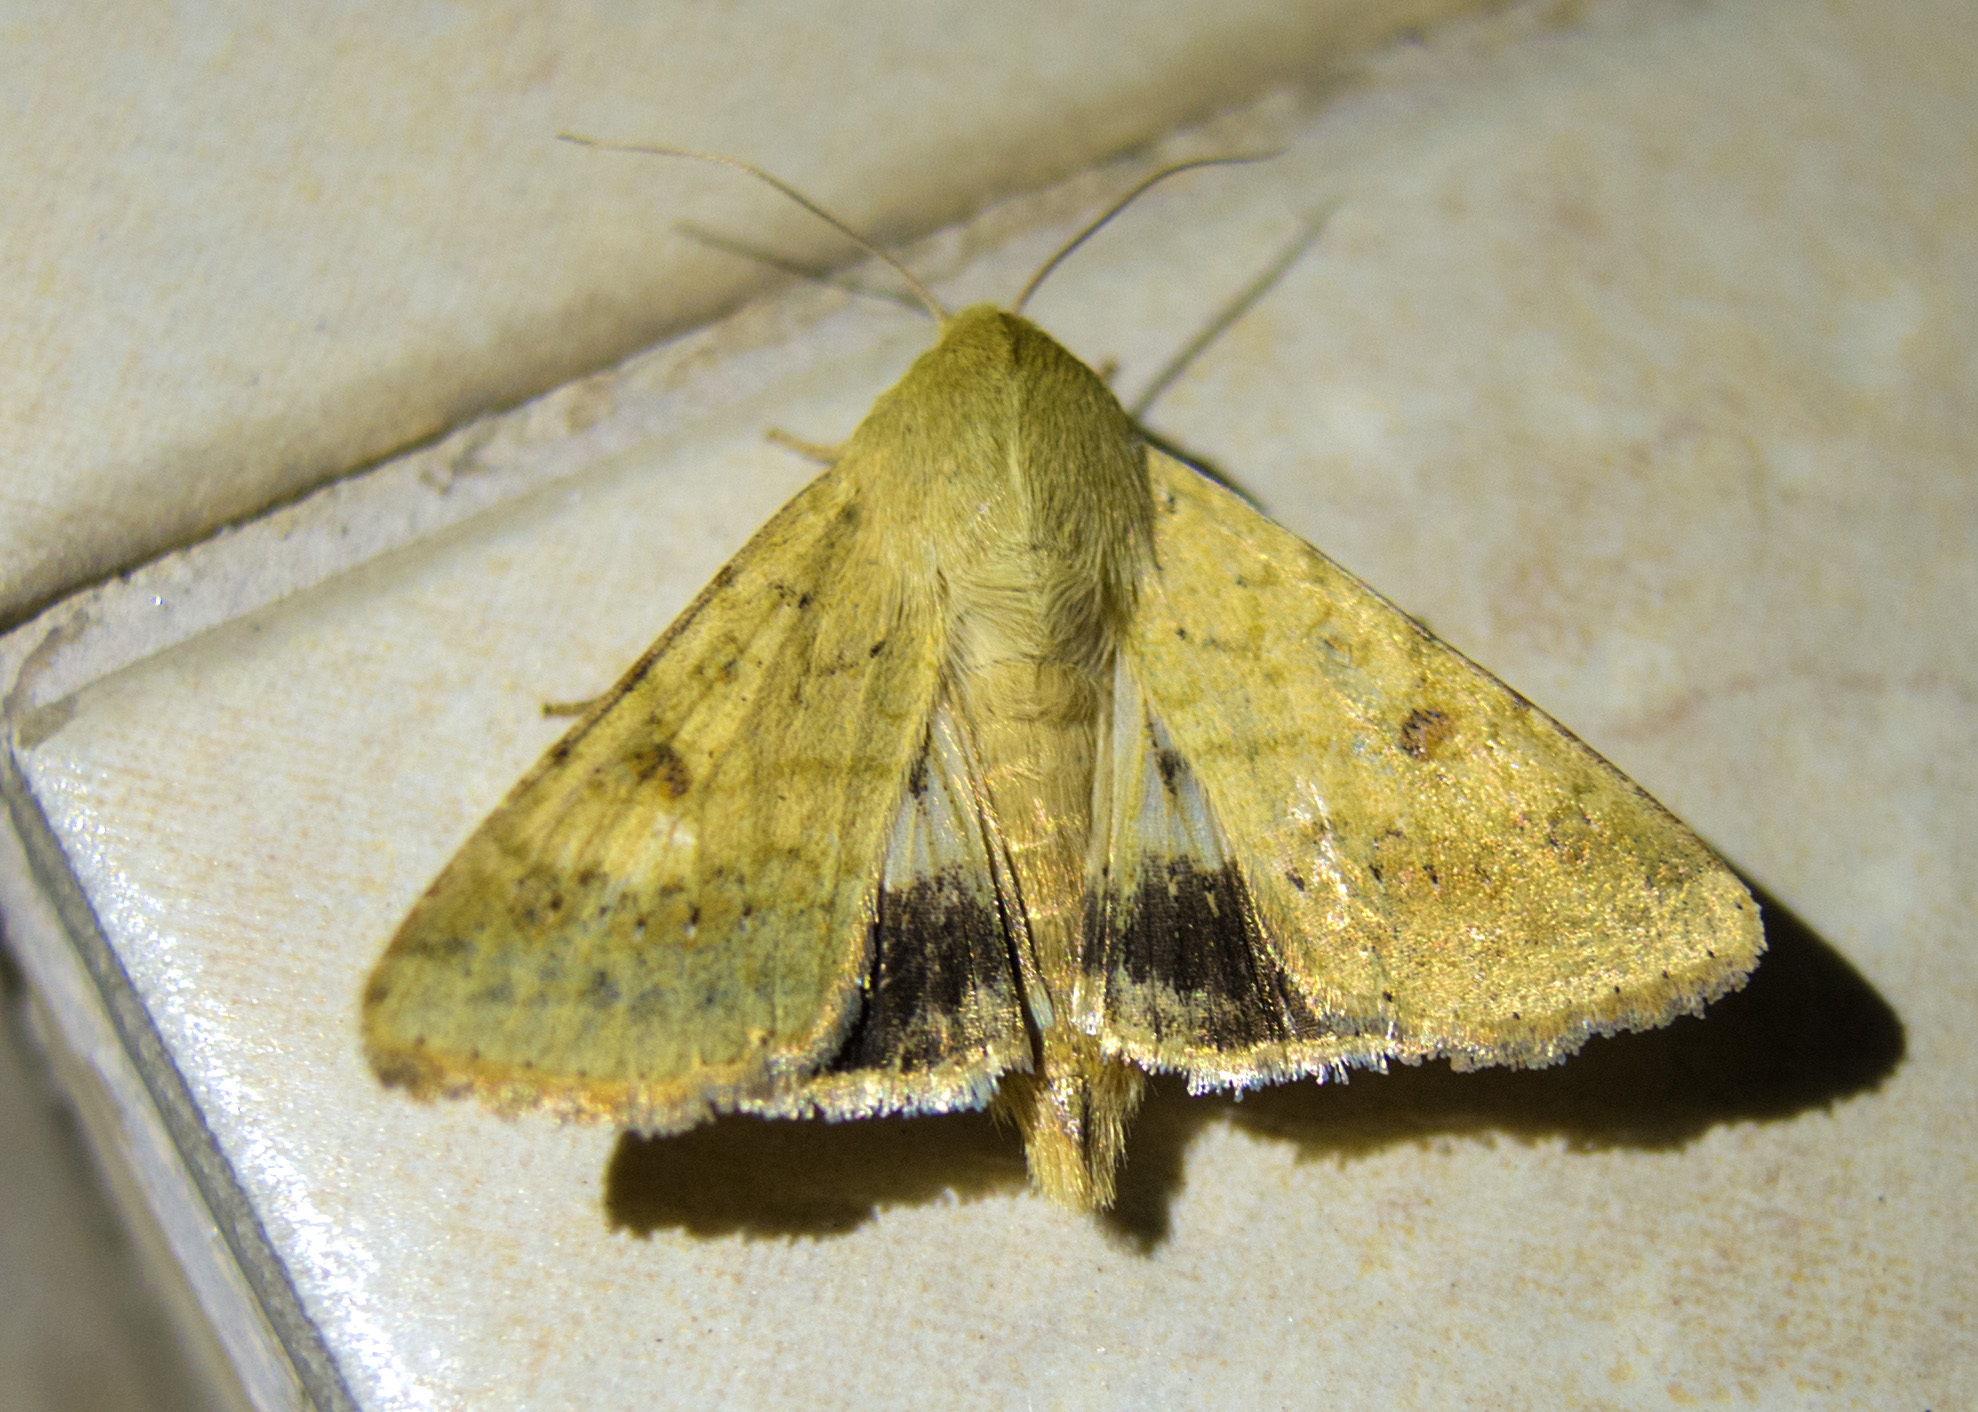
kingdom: Animalia
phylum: Arthropoda
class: Insecta
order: Lepidoptera
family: Noctuidae
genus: Helicoverpa
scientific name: Helicoverpa armigera
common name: Cotton bollworm
